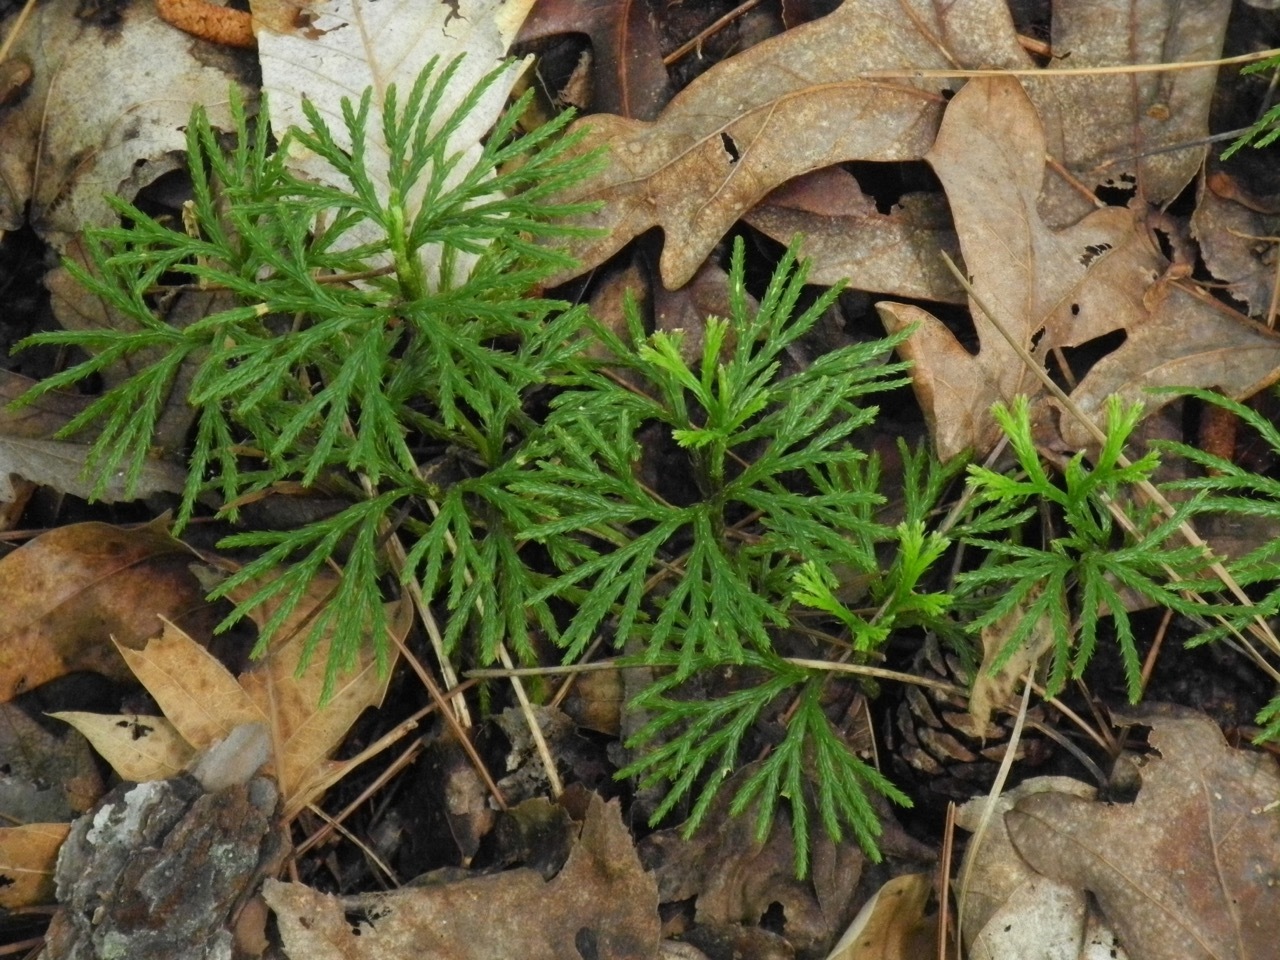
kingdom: Plantae
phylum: Tracheophyta
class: Lycopodiopsida
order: Lycopodiales
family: Lycopodiaceae
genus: Diphasiastrum
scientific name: Diphasiastrum digitatum
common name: Southern running-pine
